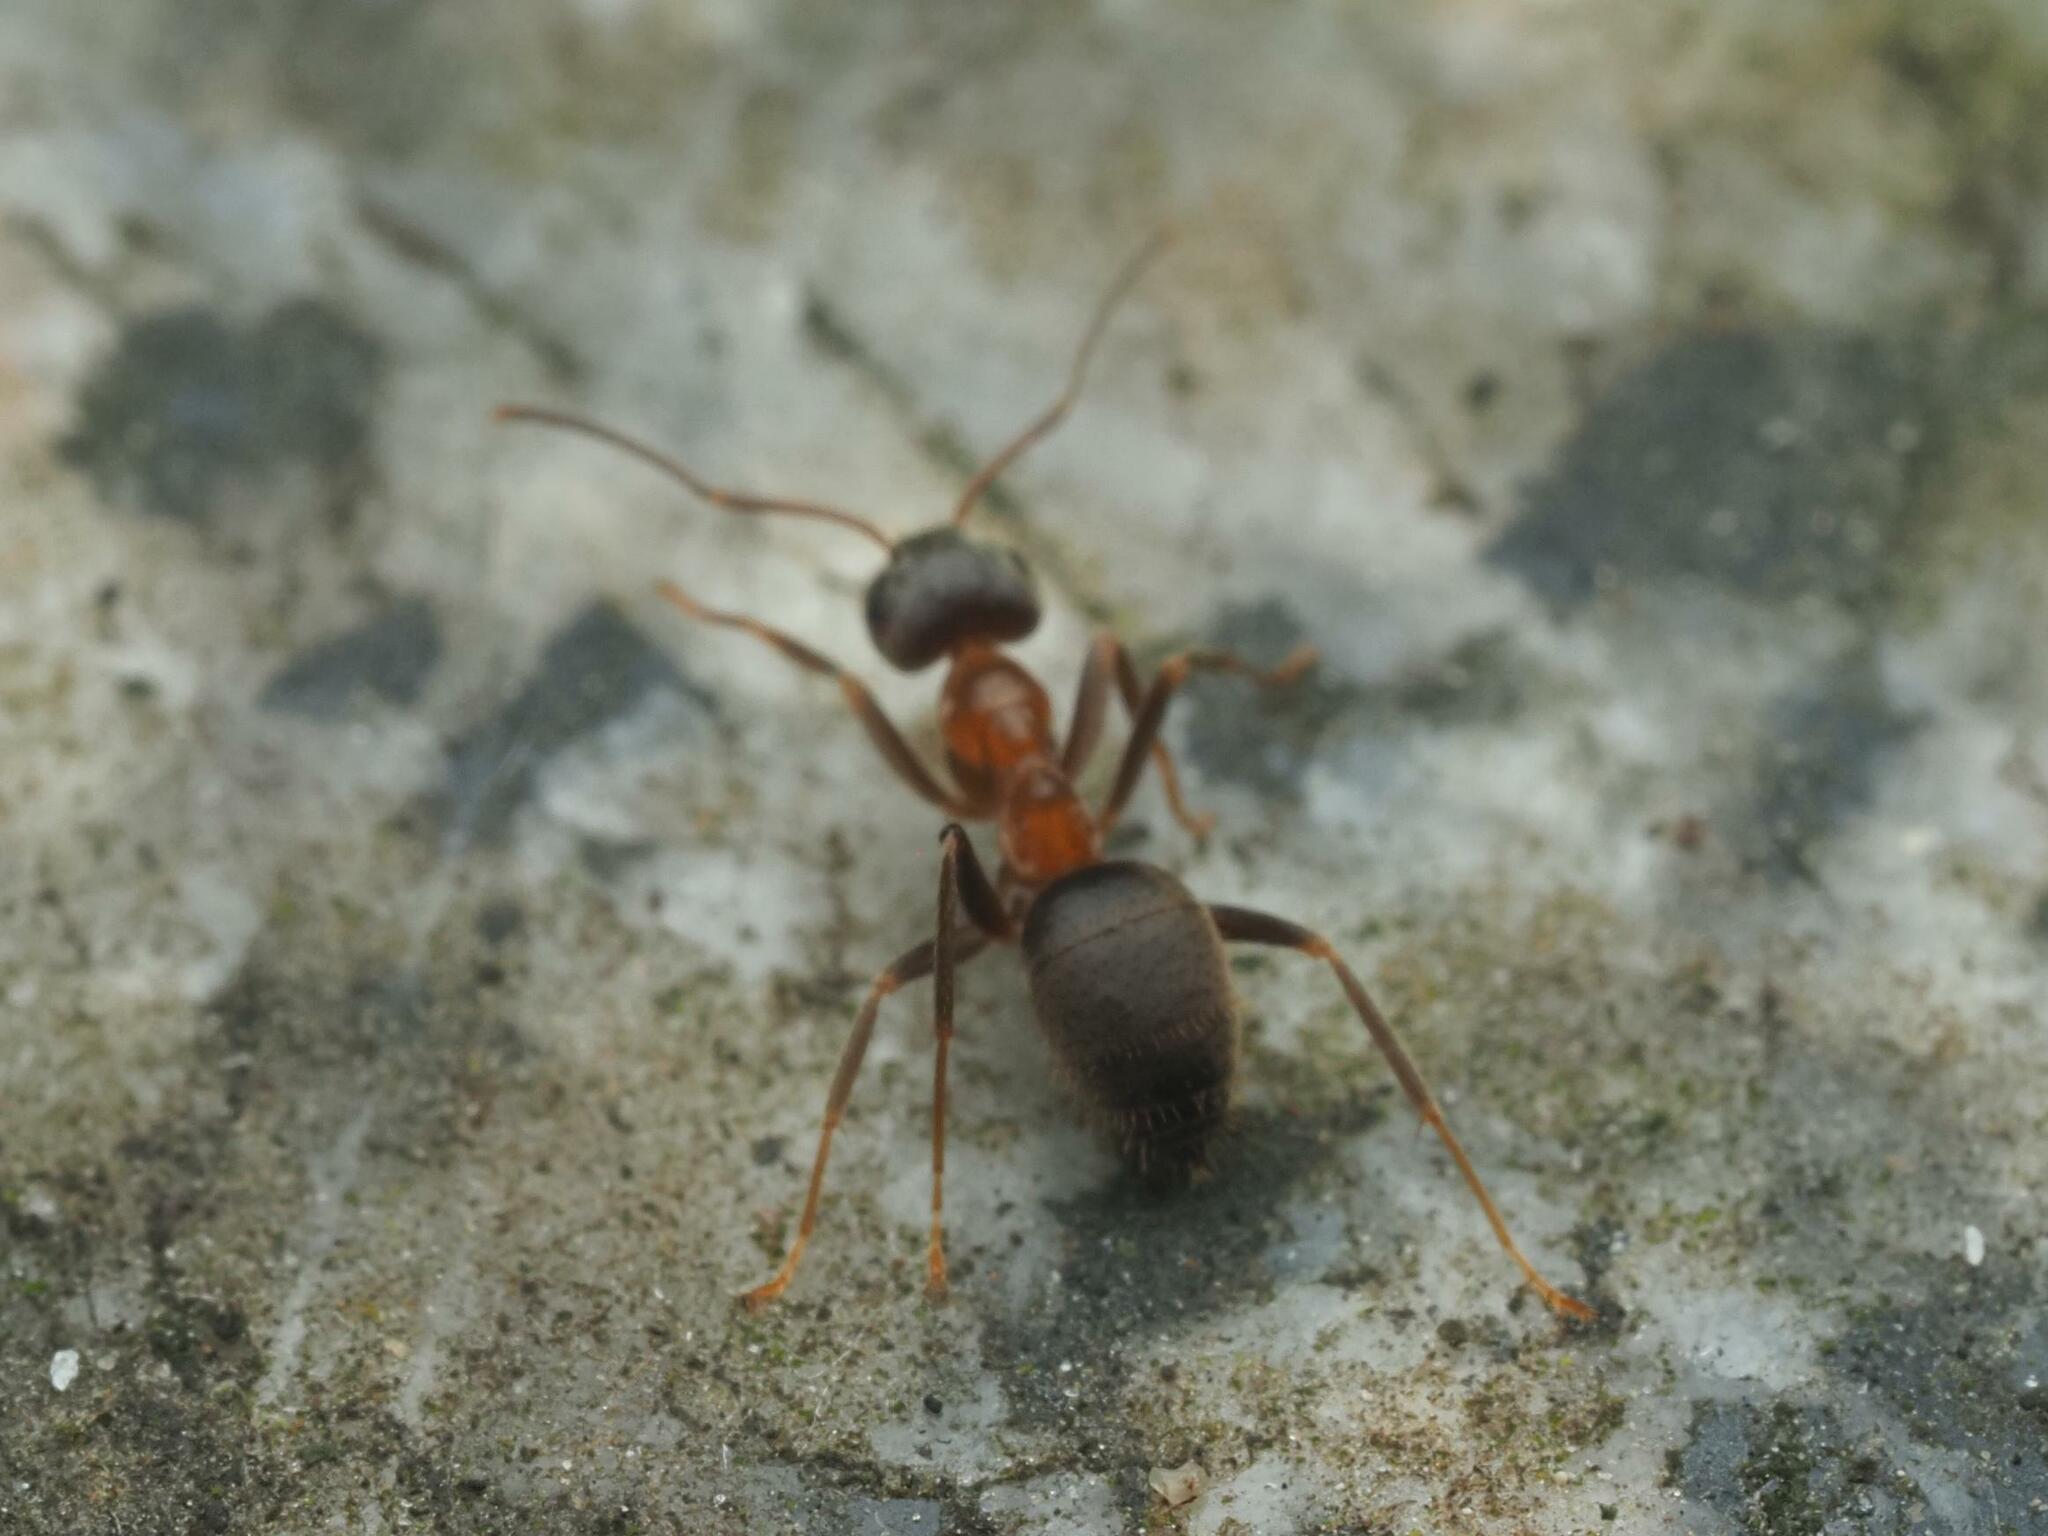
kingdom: Animalia
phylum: Arthropoda
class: Insecta
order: Hymenoptera
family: Formicidae
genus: Lasius
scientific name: Lasius emarginatus
